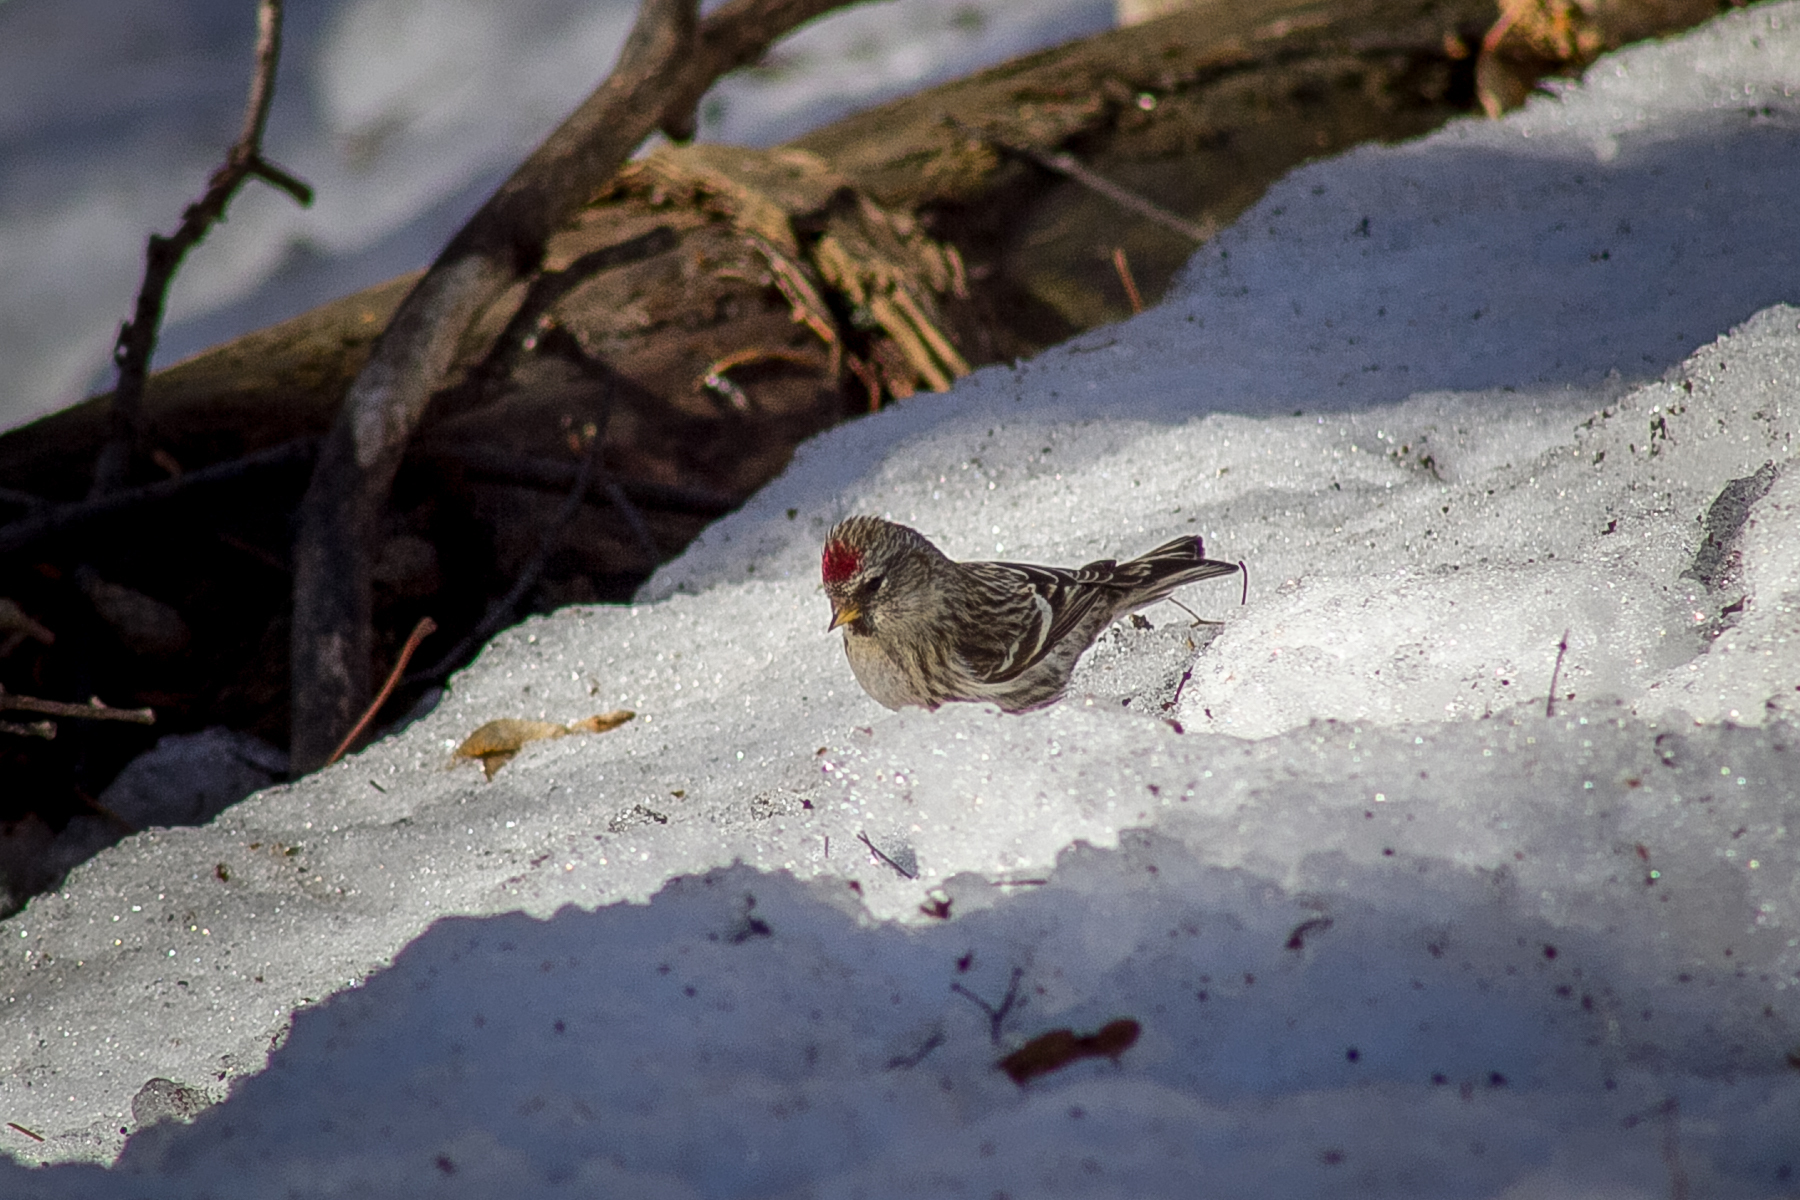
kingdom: Animalia
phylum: Chordata
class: Aves
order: Passeriformes
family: Fringillidae
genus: Acanthis
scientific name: Acanthis flammea
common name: Common redpoll
